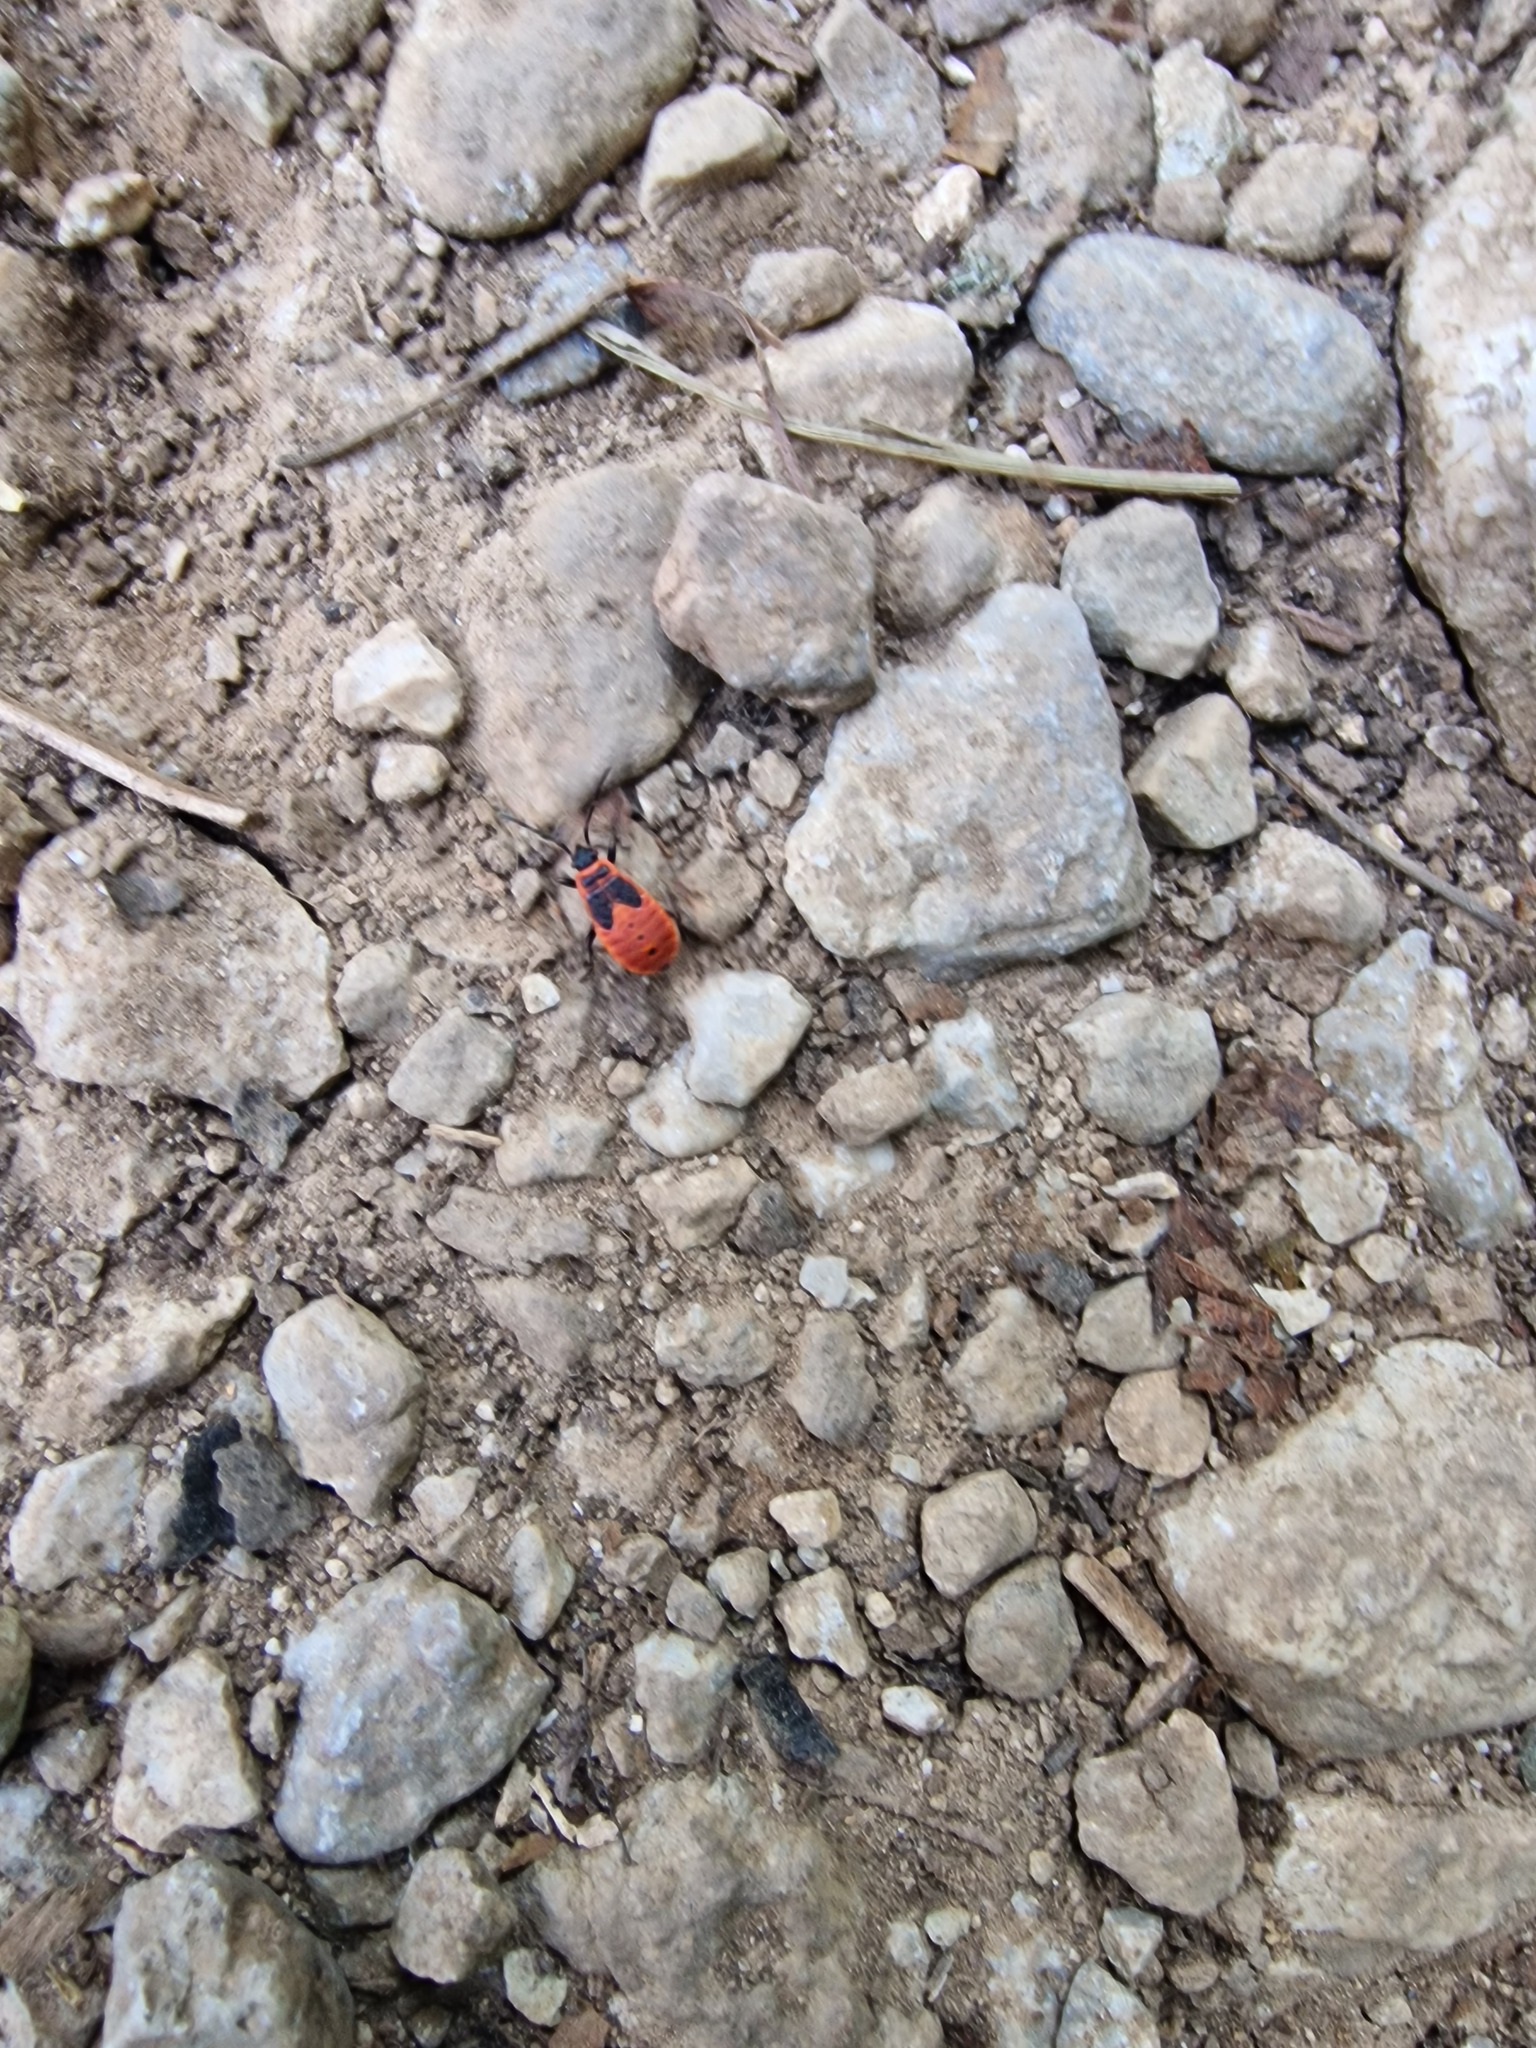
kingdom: Animalia
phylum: Arthropoda
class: Insecta
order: Hemiptera
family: Pyrrhocoridae
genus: Pyrrhocoris
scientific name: Pyrrhocoris apterus
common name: Firebug
